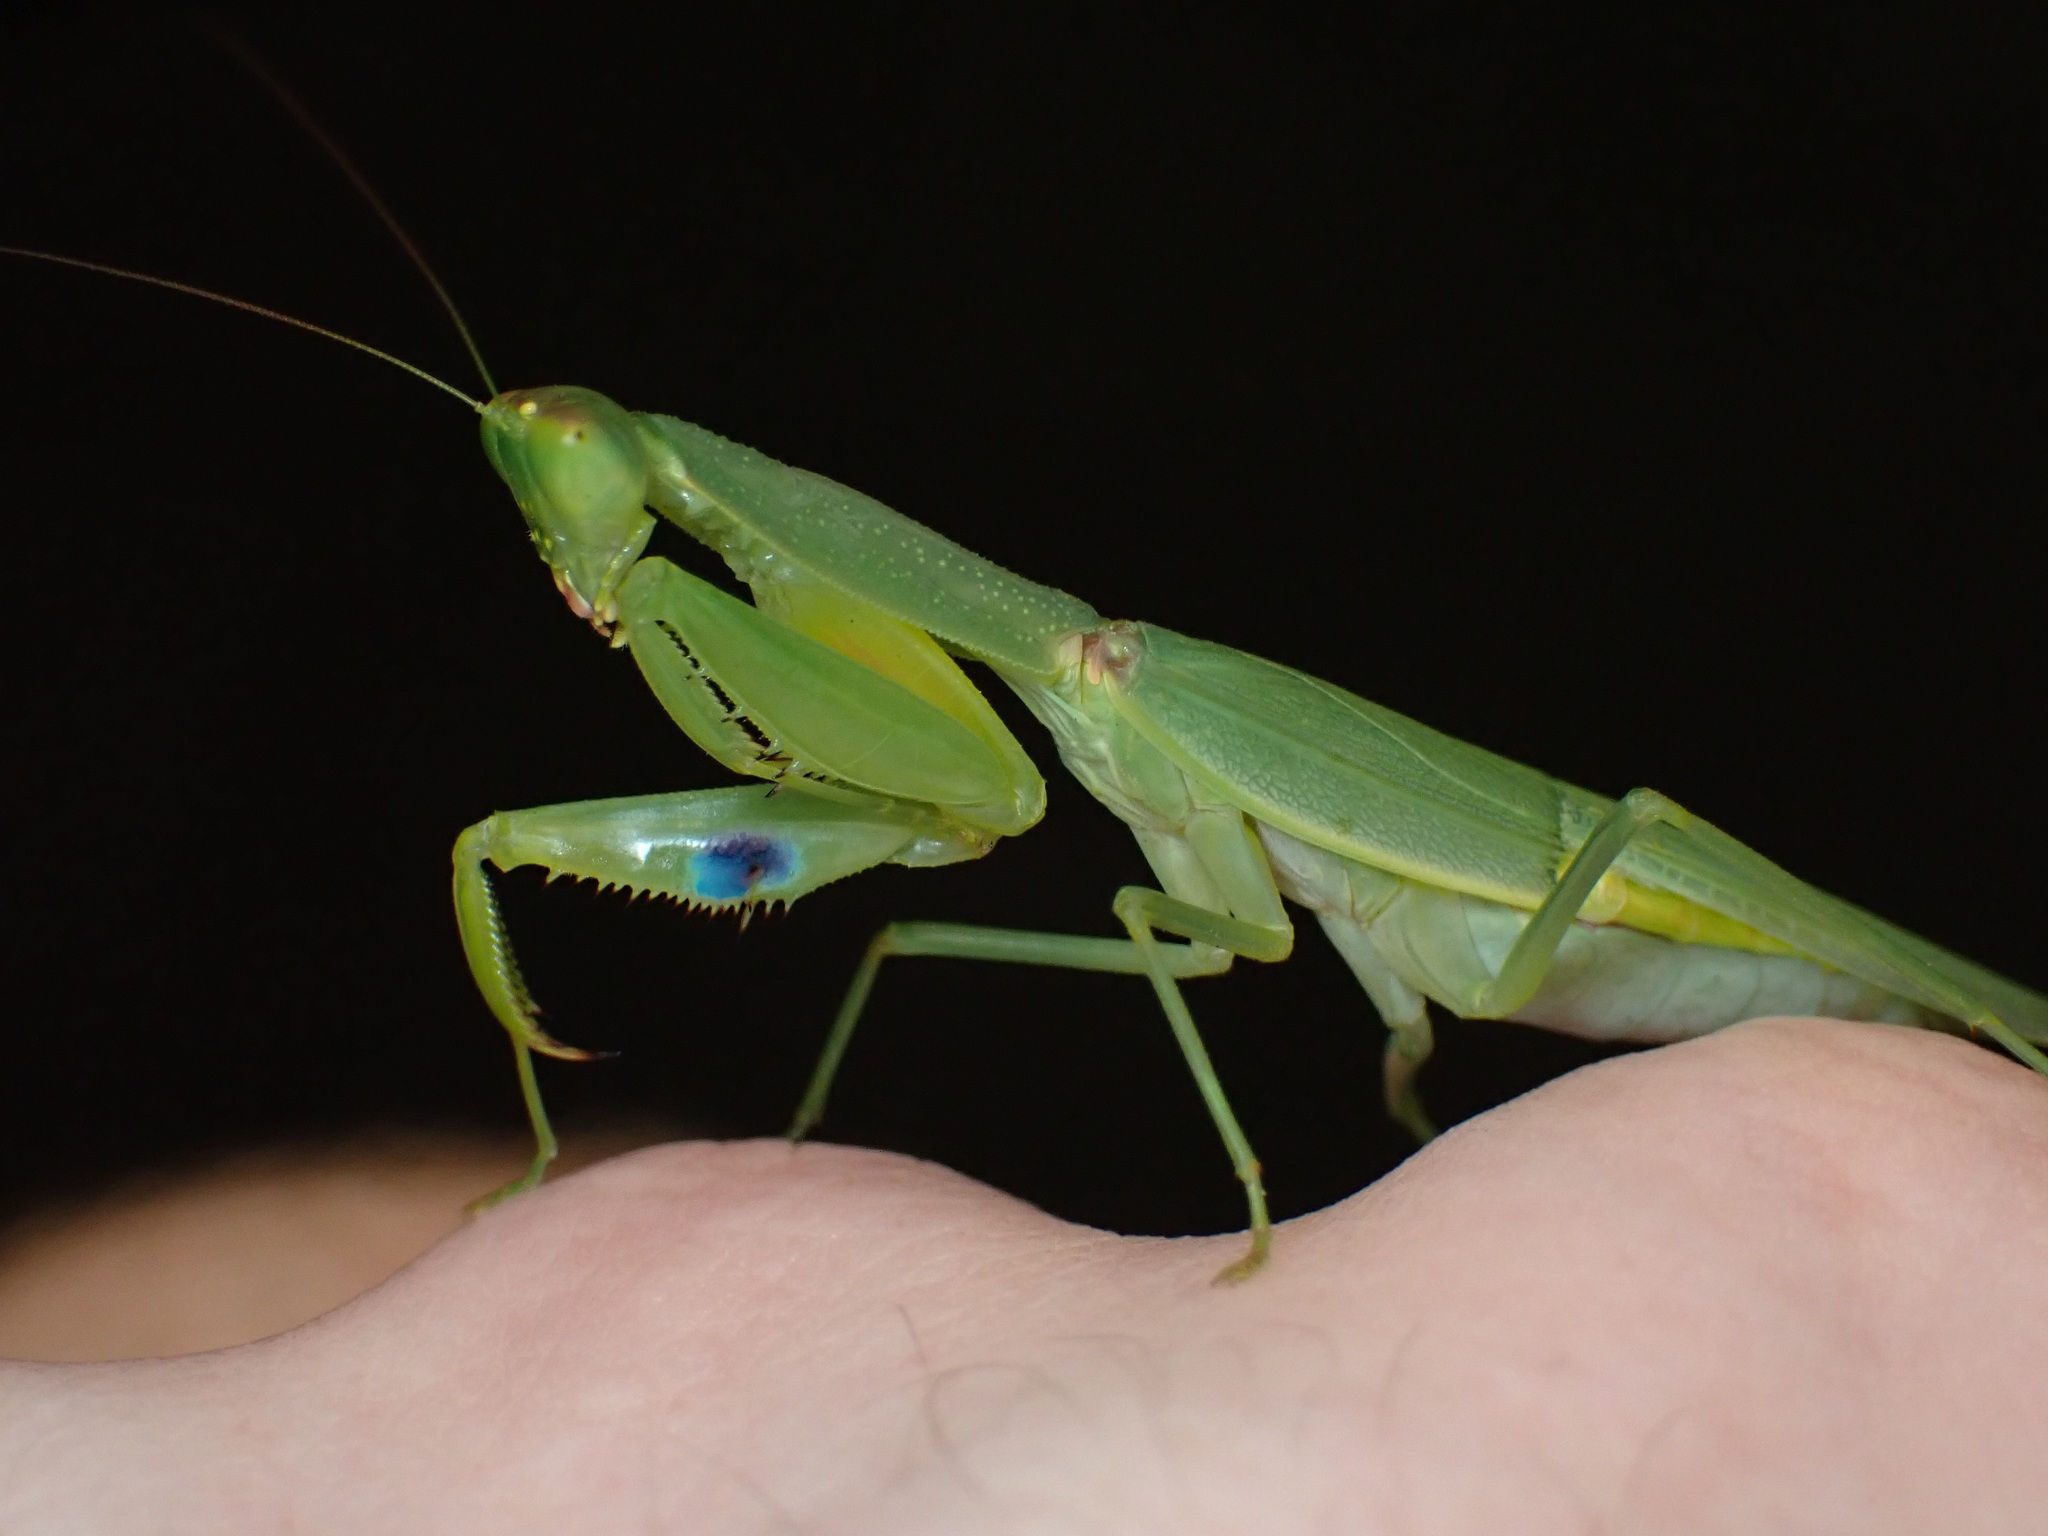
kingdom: Animalia
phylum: Arthropoda
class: Insecta
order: Mantodea
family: Mantidae
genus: Orthodera
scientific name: Orthodera ministralis
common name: Mantis
